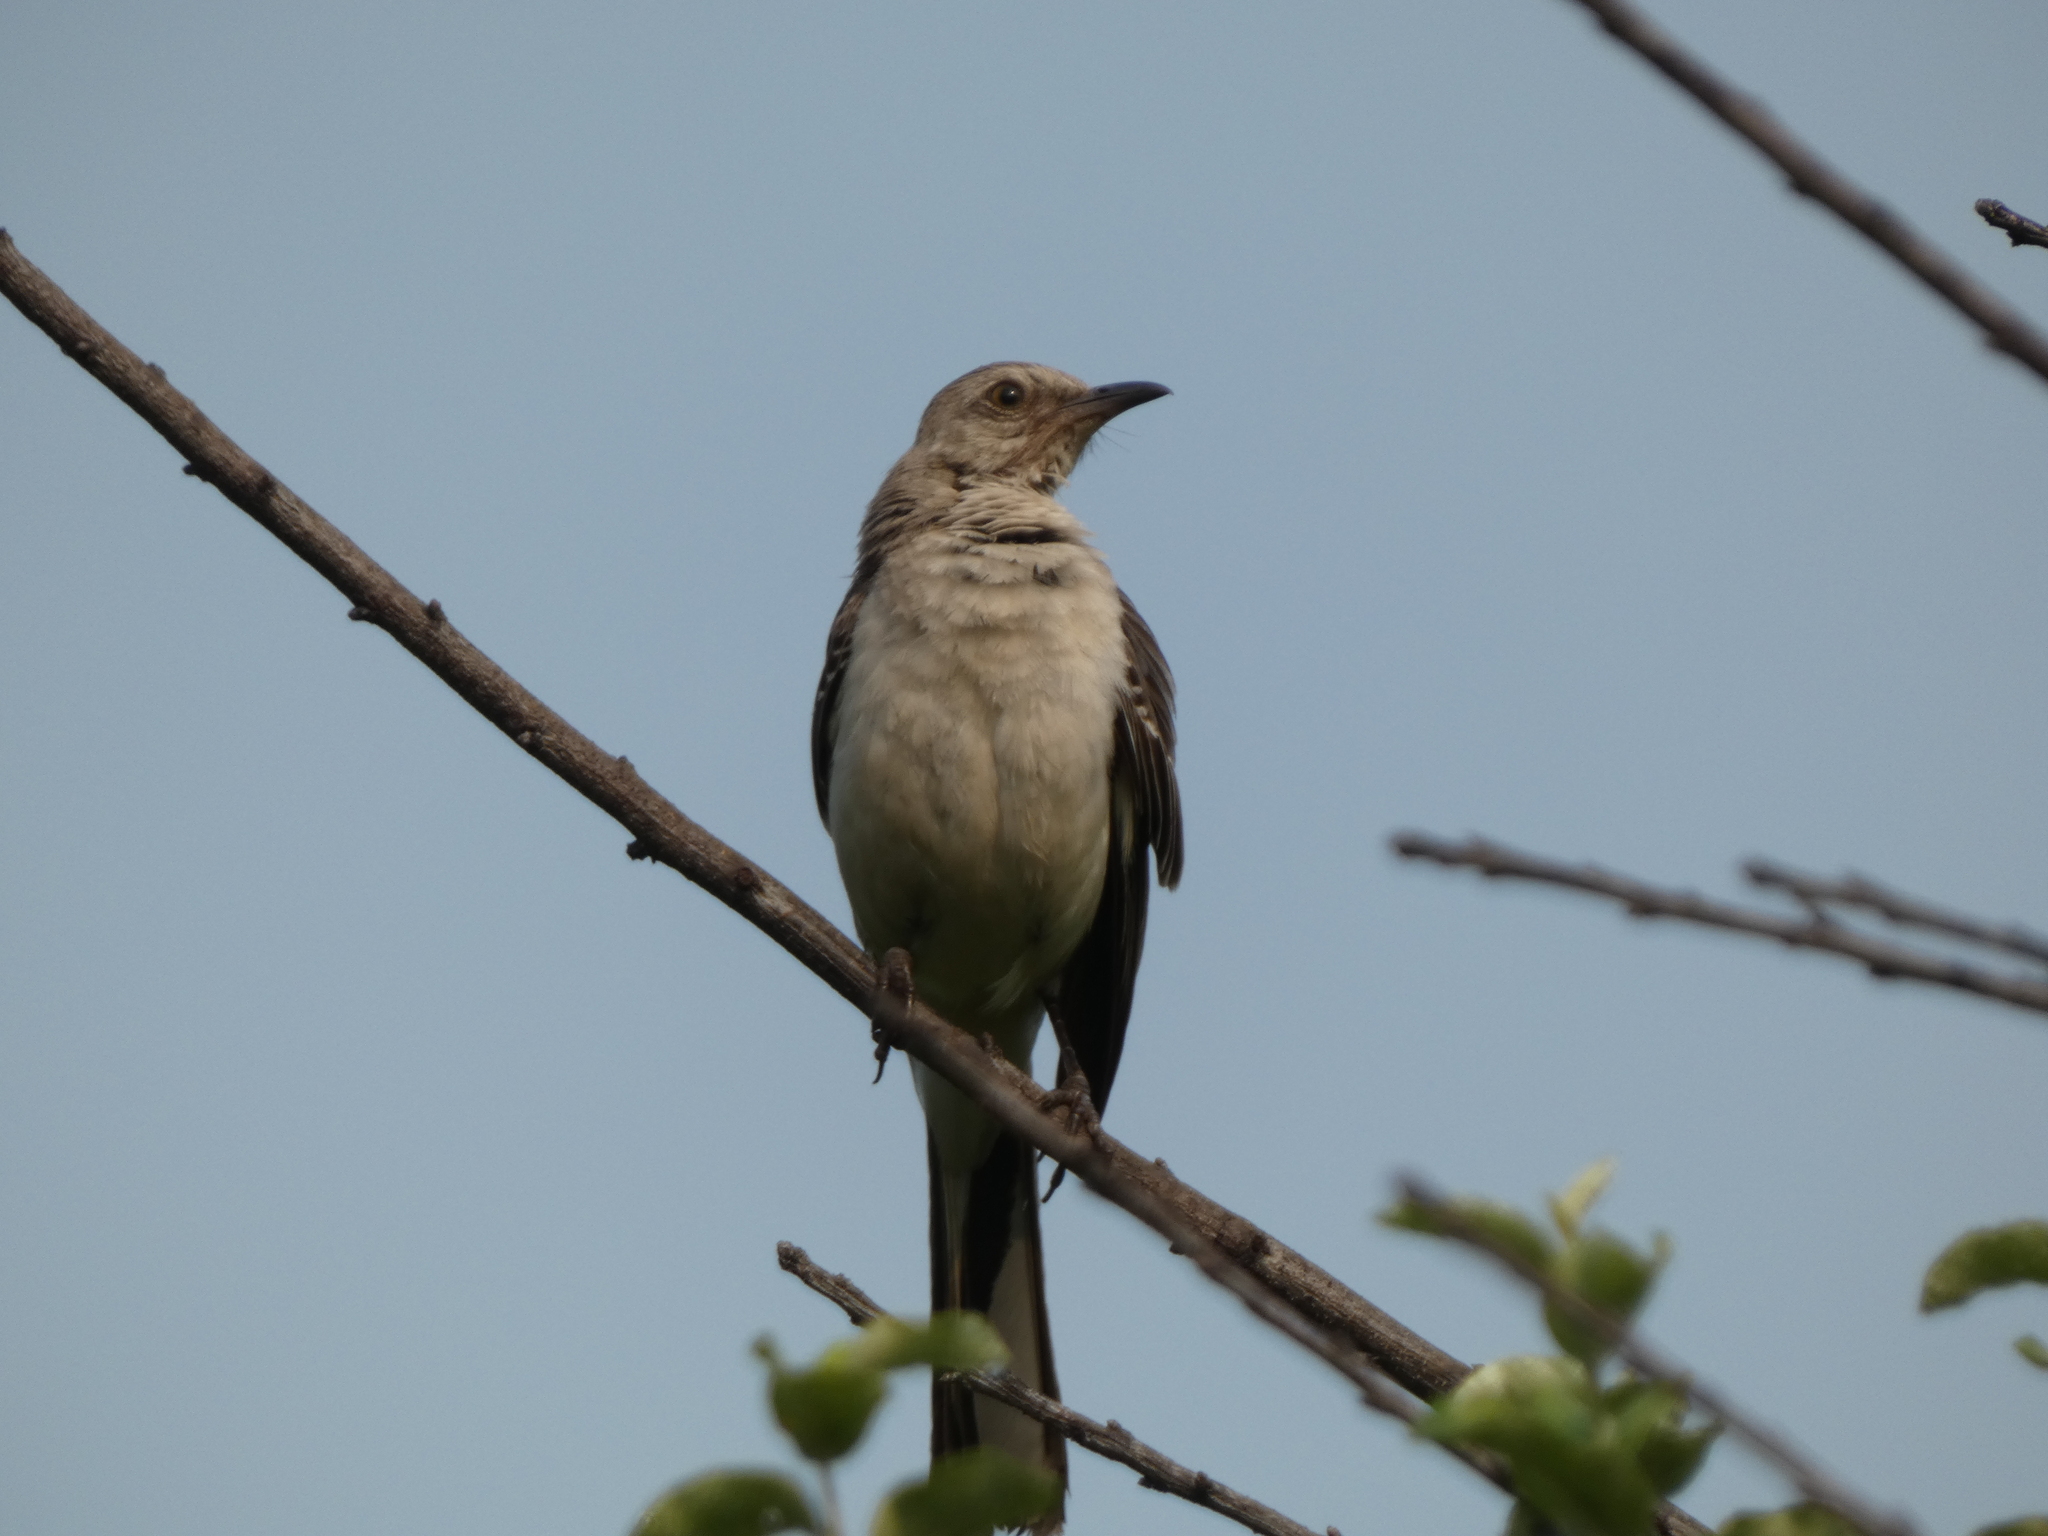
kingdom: Animalia
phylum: Chordata
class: Aves
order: Passeriformes
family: Mimidae
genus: Mimus
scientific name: Mimus polyglottos
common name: Northern mockingbird
